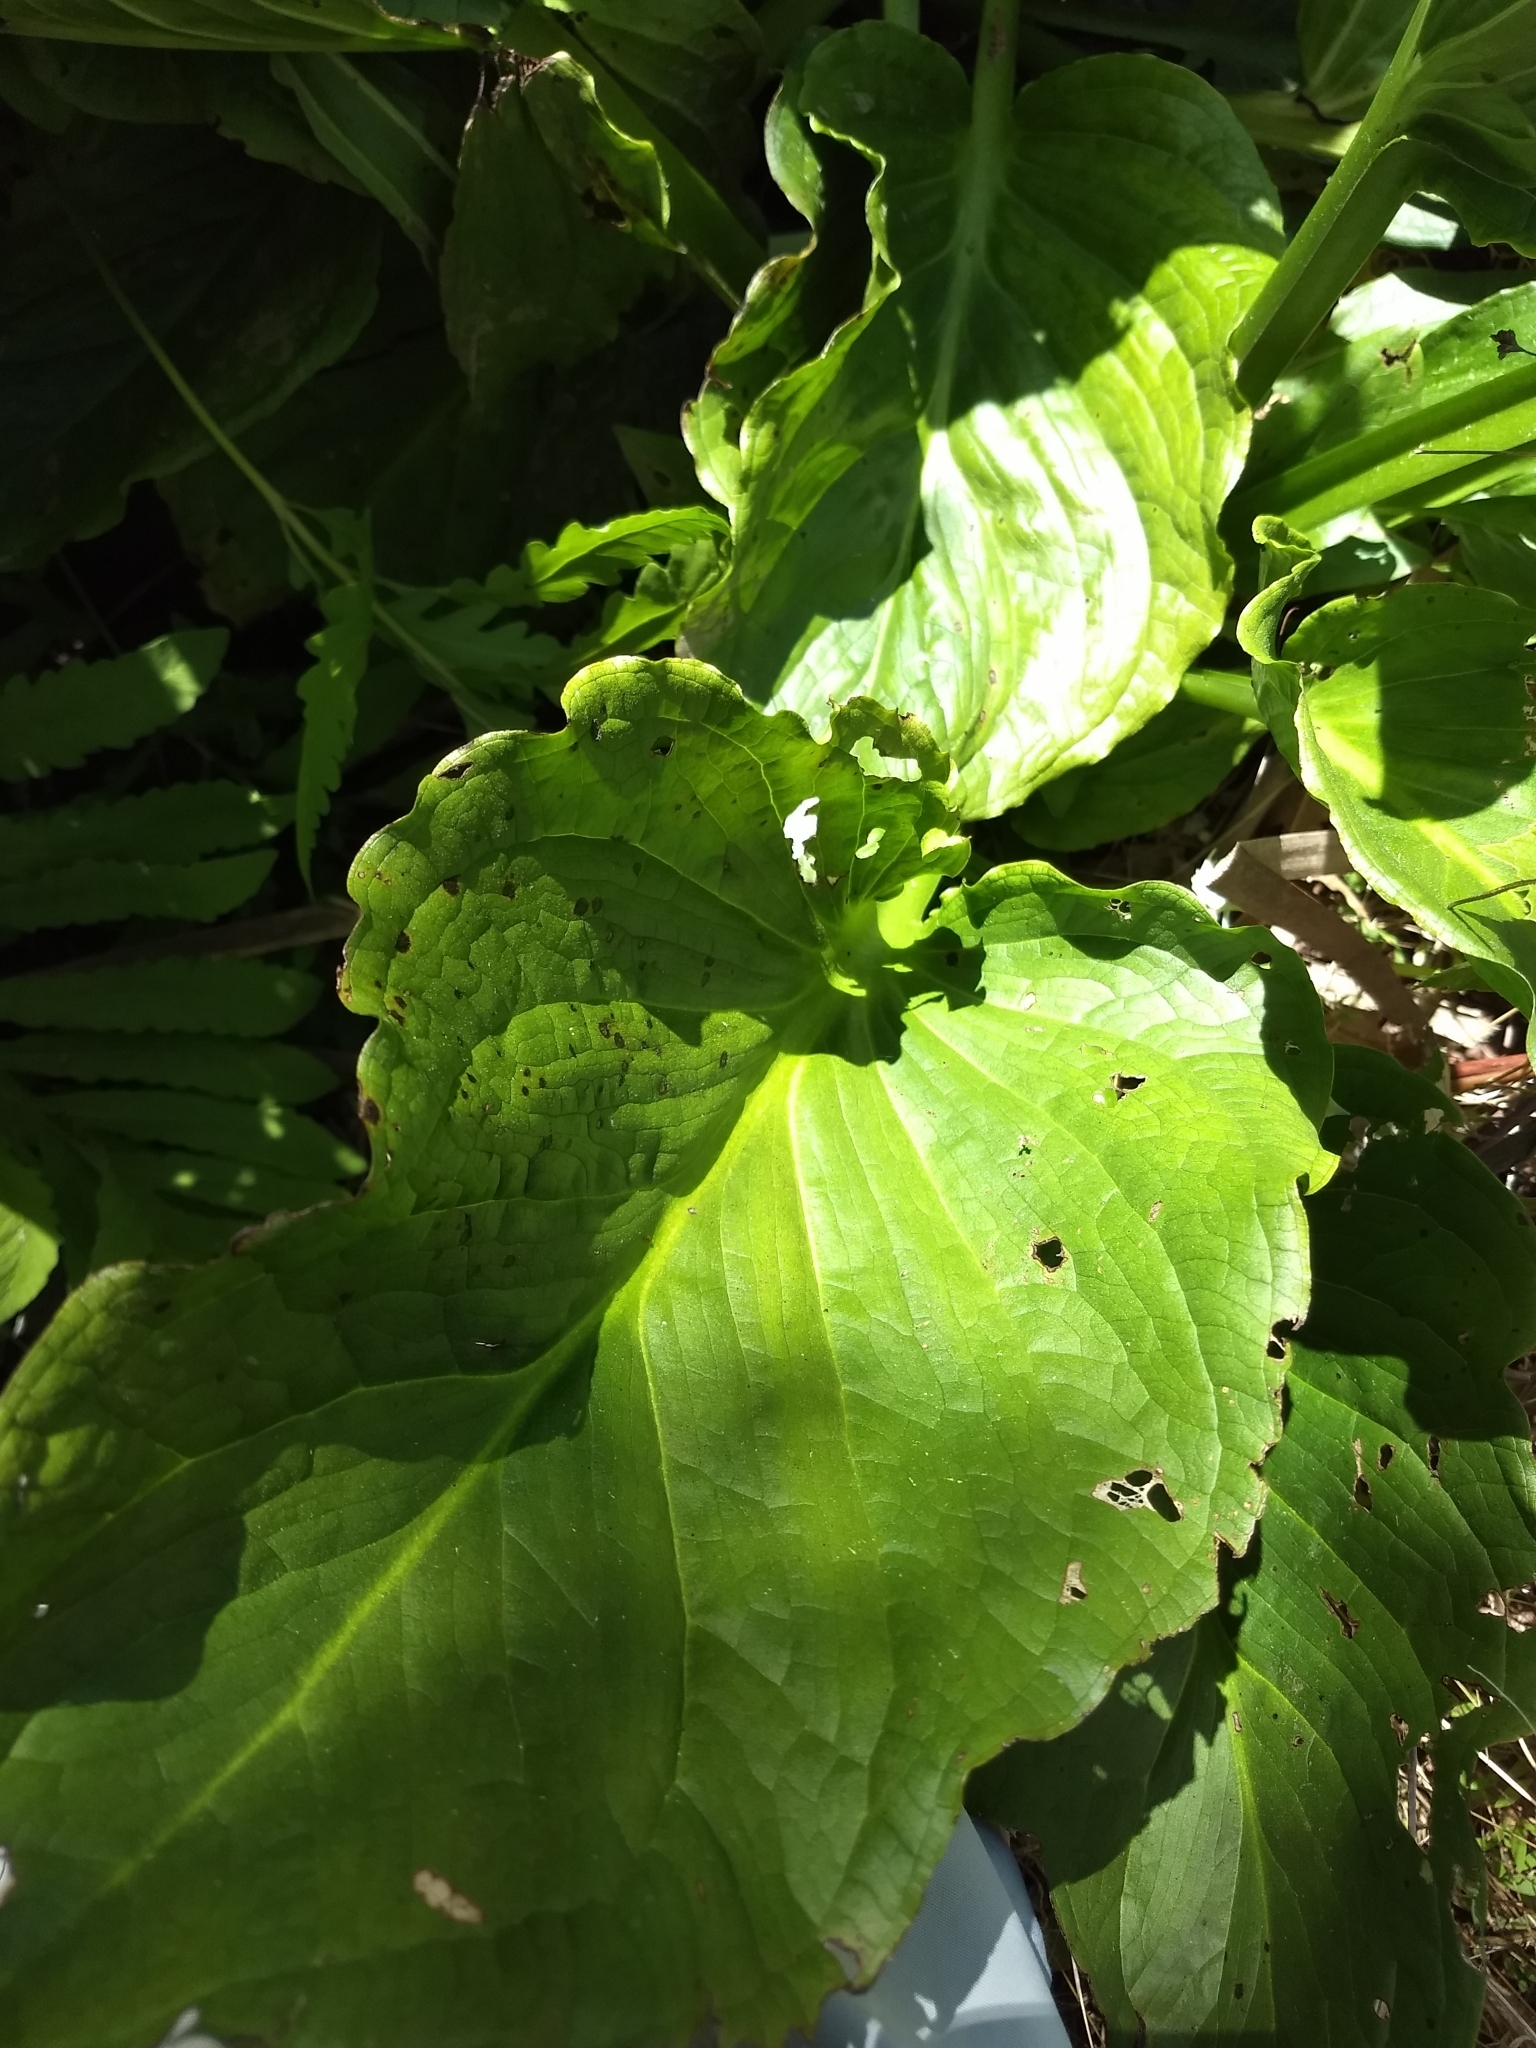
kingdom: Plantae
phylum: Tracheophyta
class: Liliopsida
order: Alismatales
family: Araceae
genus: Symplocarpus
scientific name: Symplocarpus foetidus
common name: Eastern skunk cabbage
